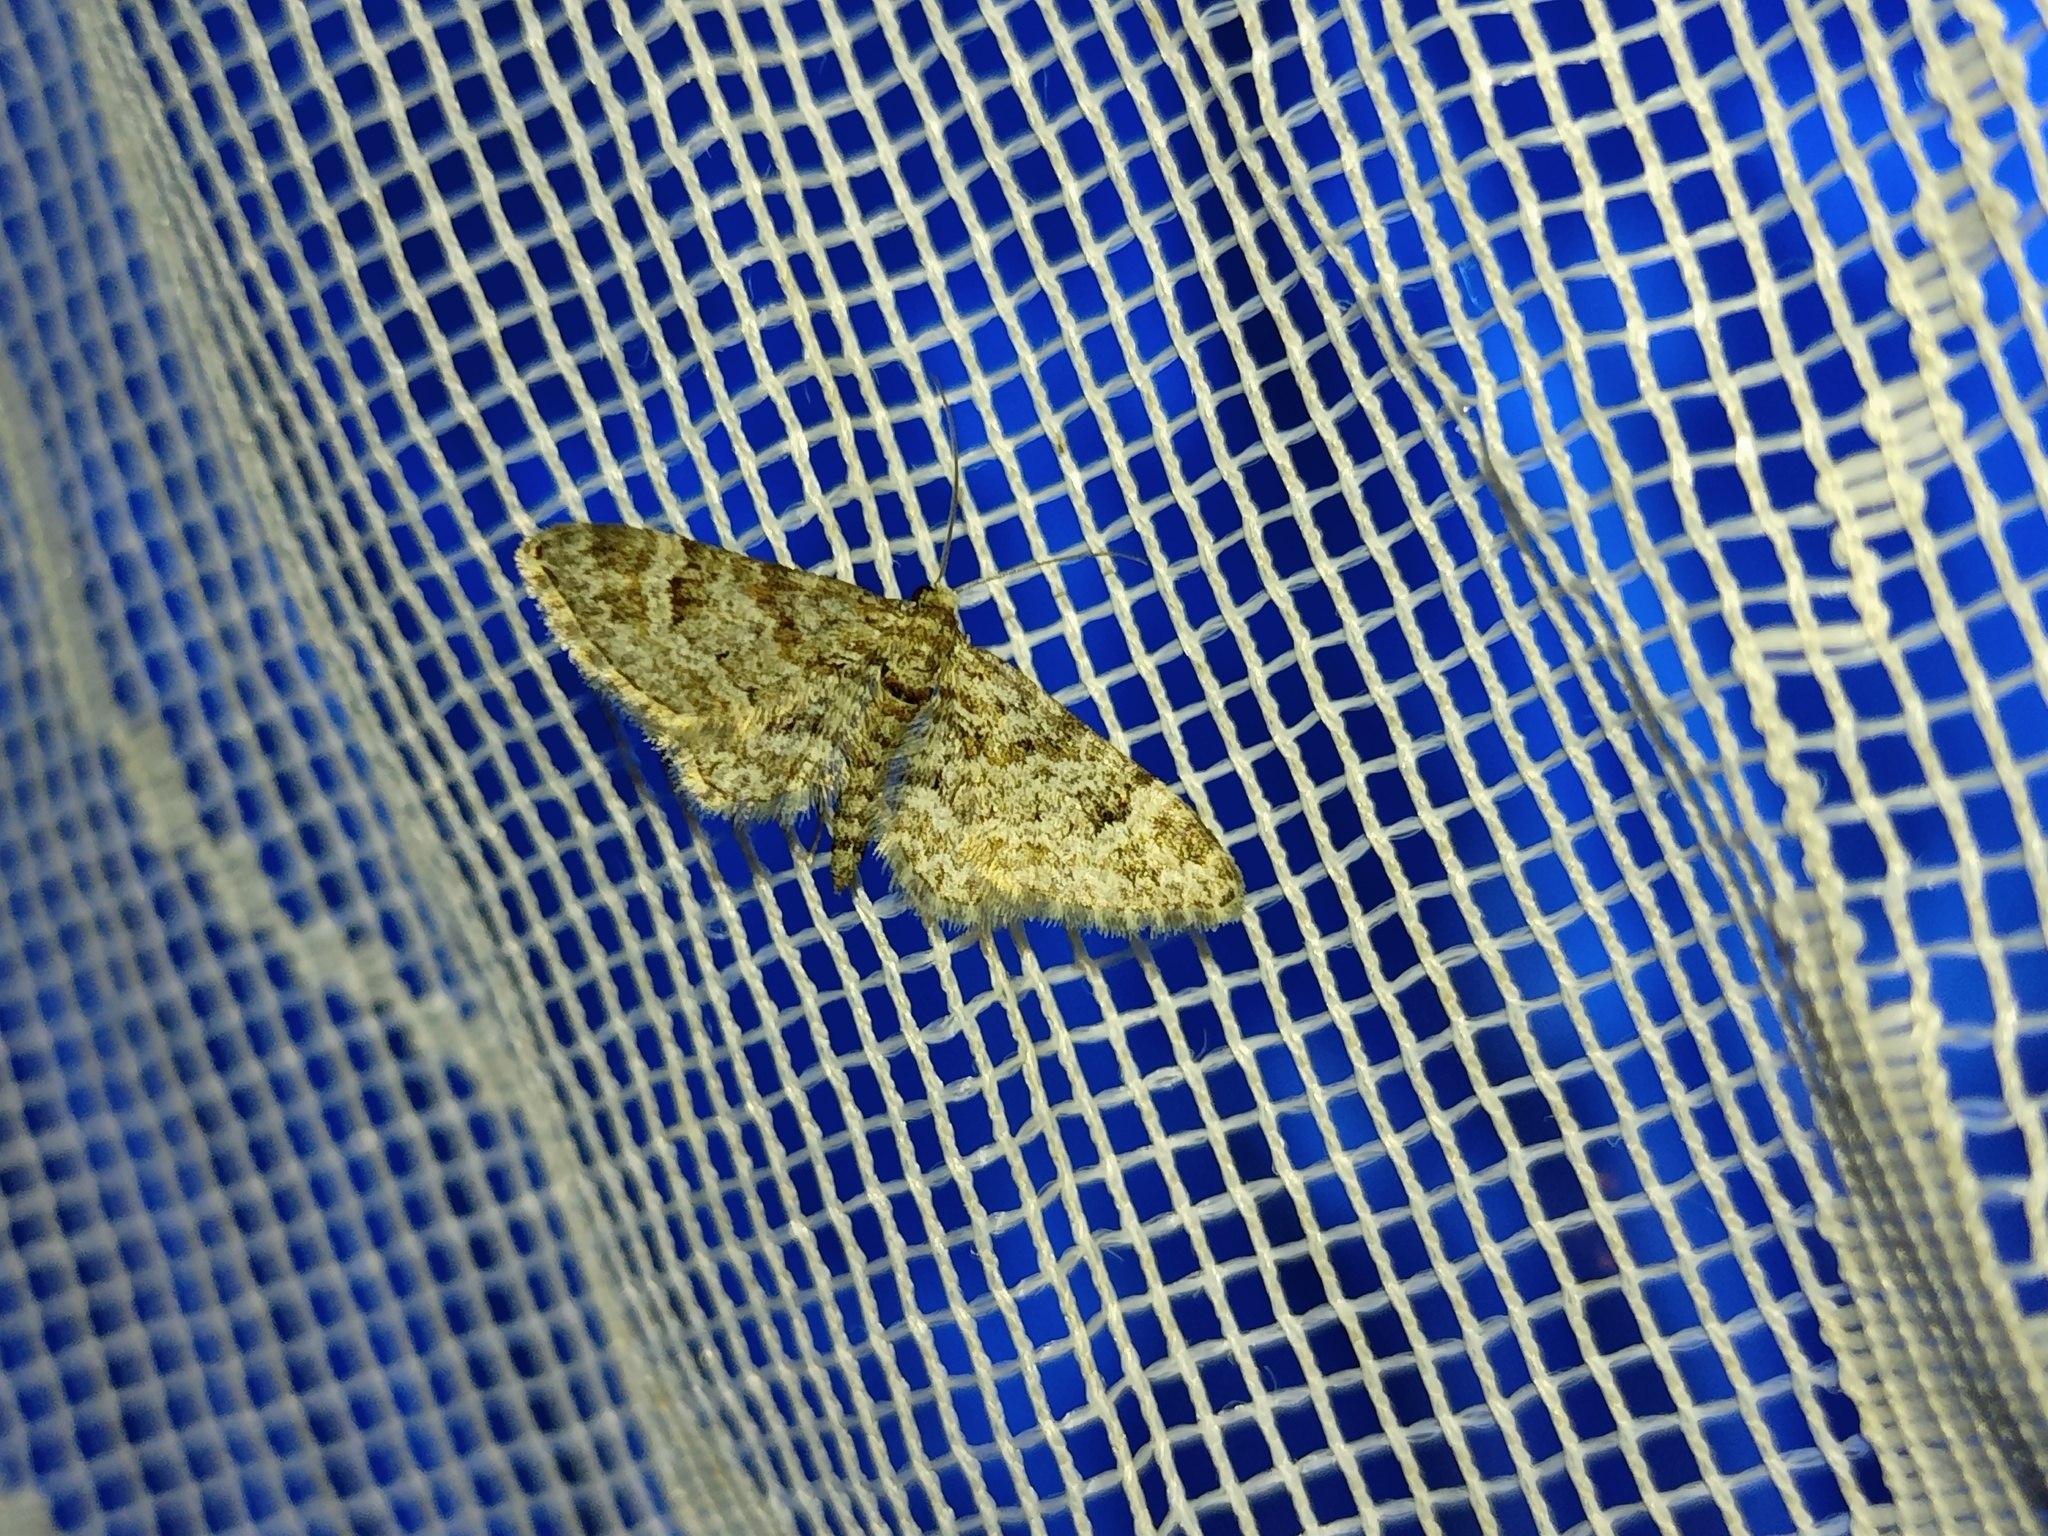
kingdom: Animalia
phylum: Arthropoda
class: Insecta
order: Lepidoptera
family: Geometridae
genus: Gymnoscelis
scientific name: Gymnoscelis rufifasciata
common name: Double-striped pug
